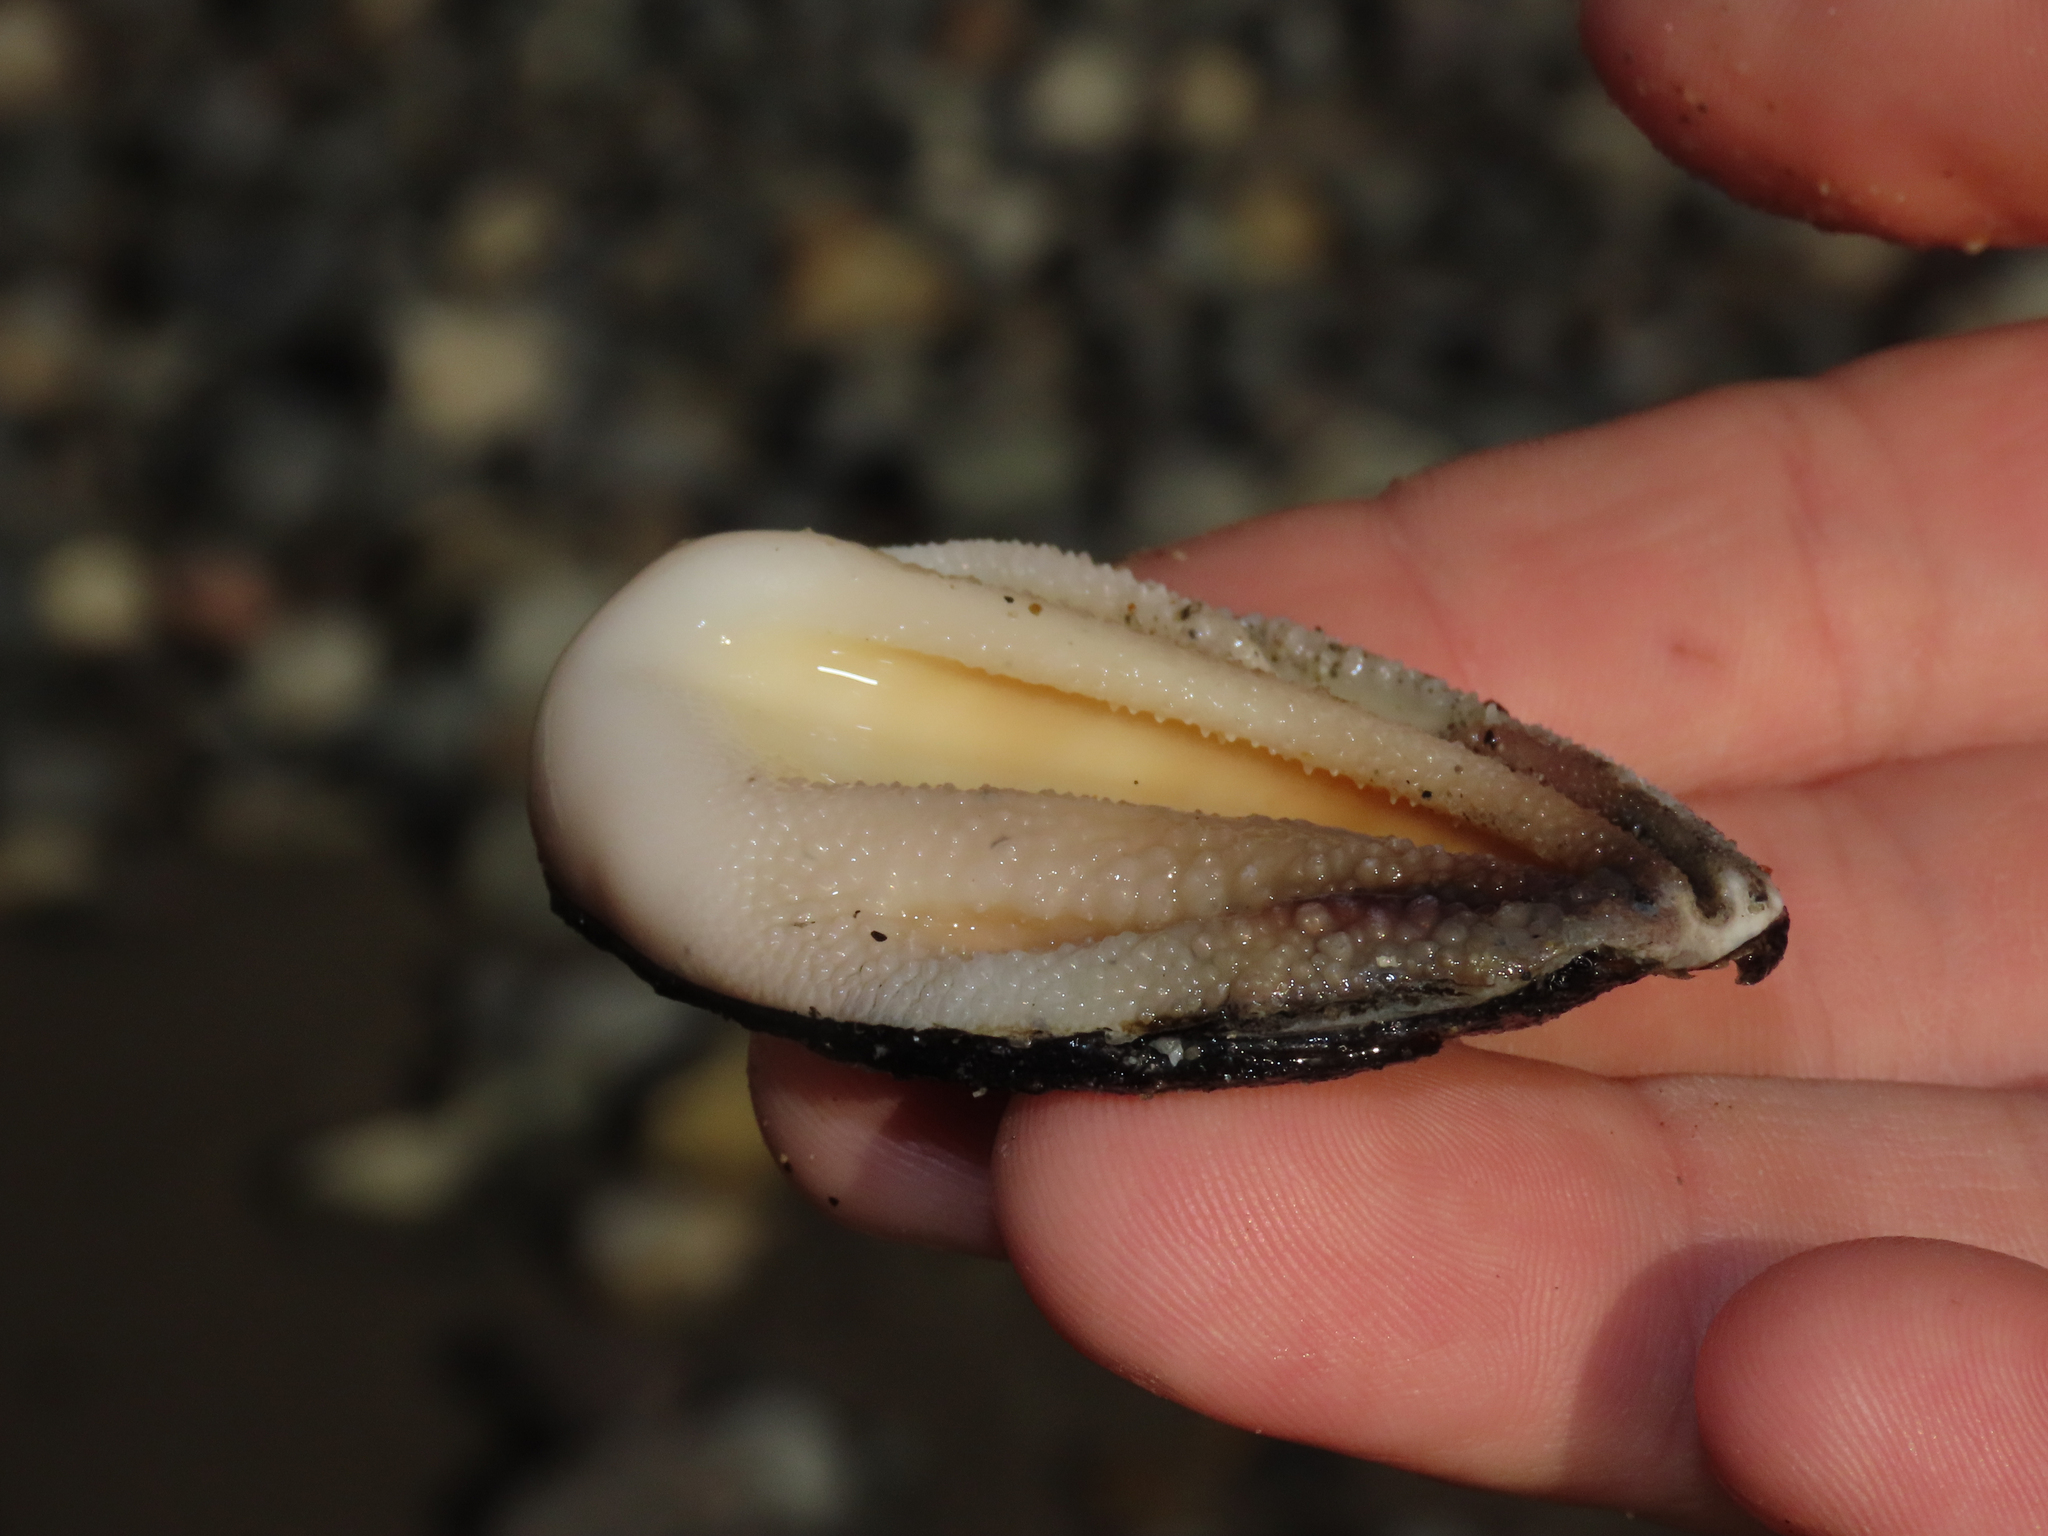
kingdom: Animalia
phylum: Mollusca
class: Gastropoda
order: Trochida
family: Turbinidae
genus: Megastraea
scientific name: Megastraea undosa
